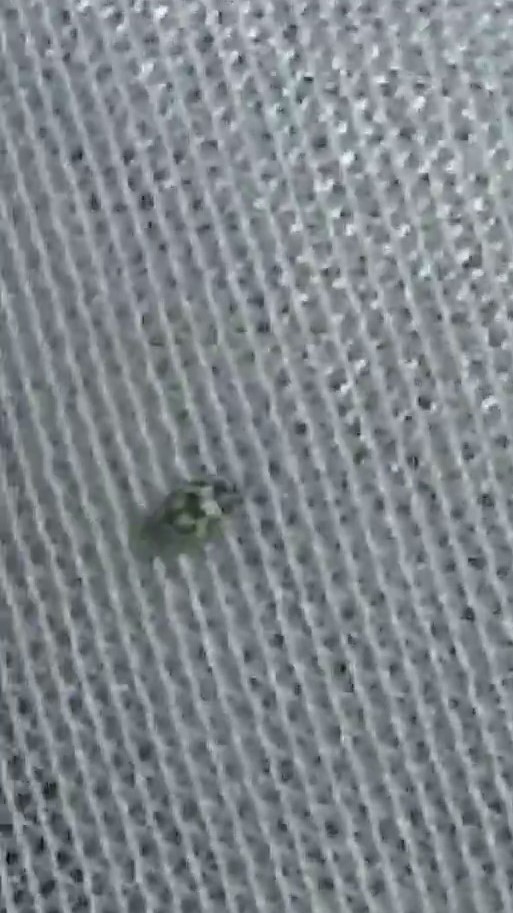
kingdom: Animalia
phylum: Arthropoda
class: Insecta
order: Coleoptera
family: Coccinellidae
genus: Propylaea
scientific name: Propylaea quatuordecimpunctata
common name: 14-spotted ladybird beetle
